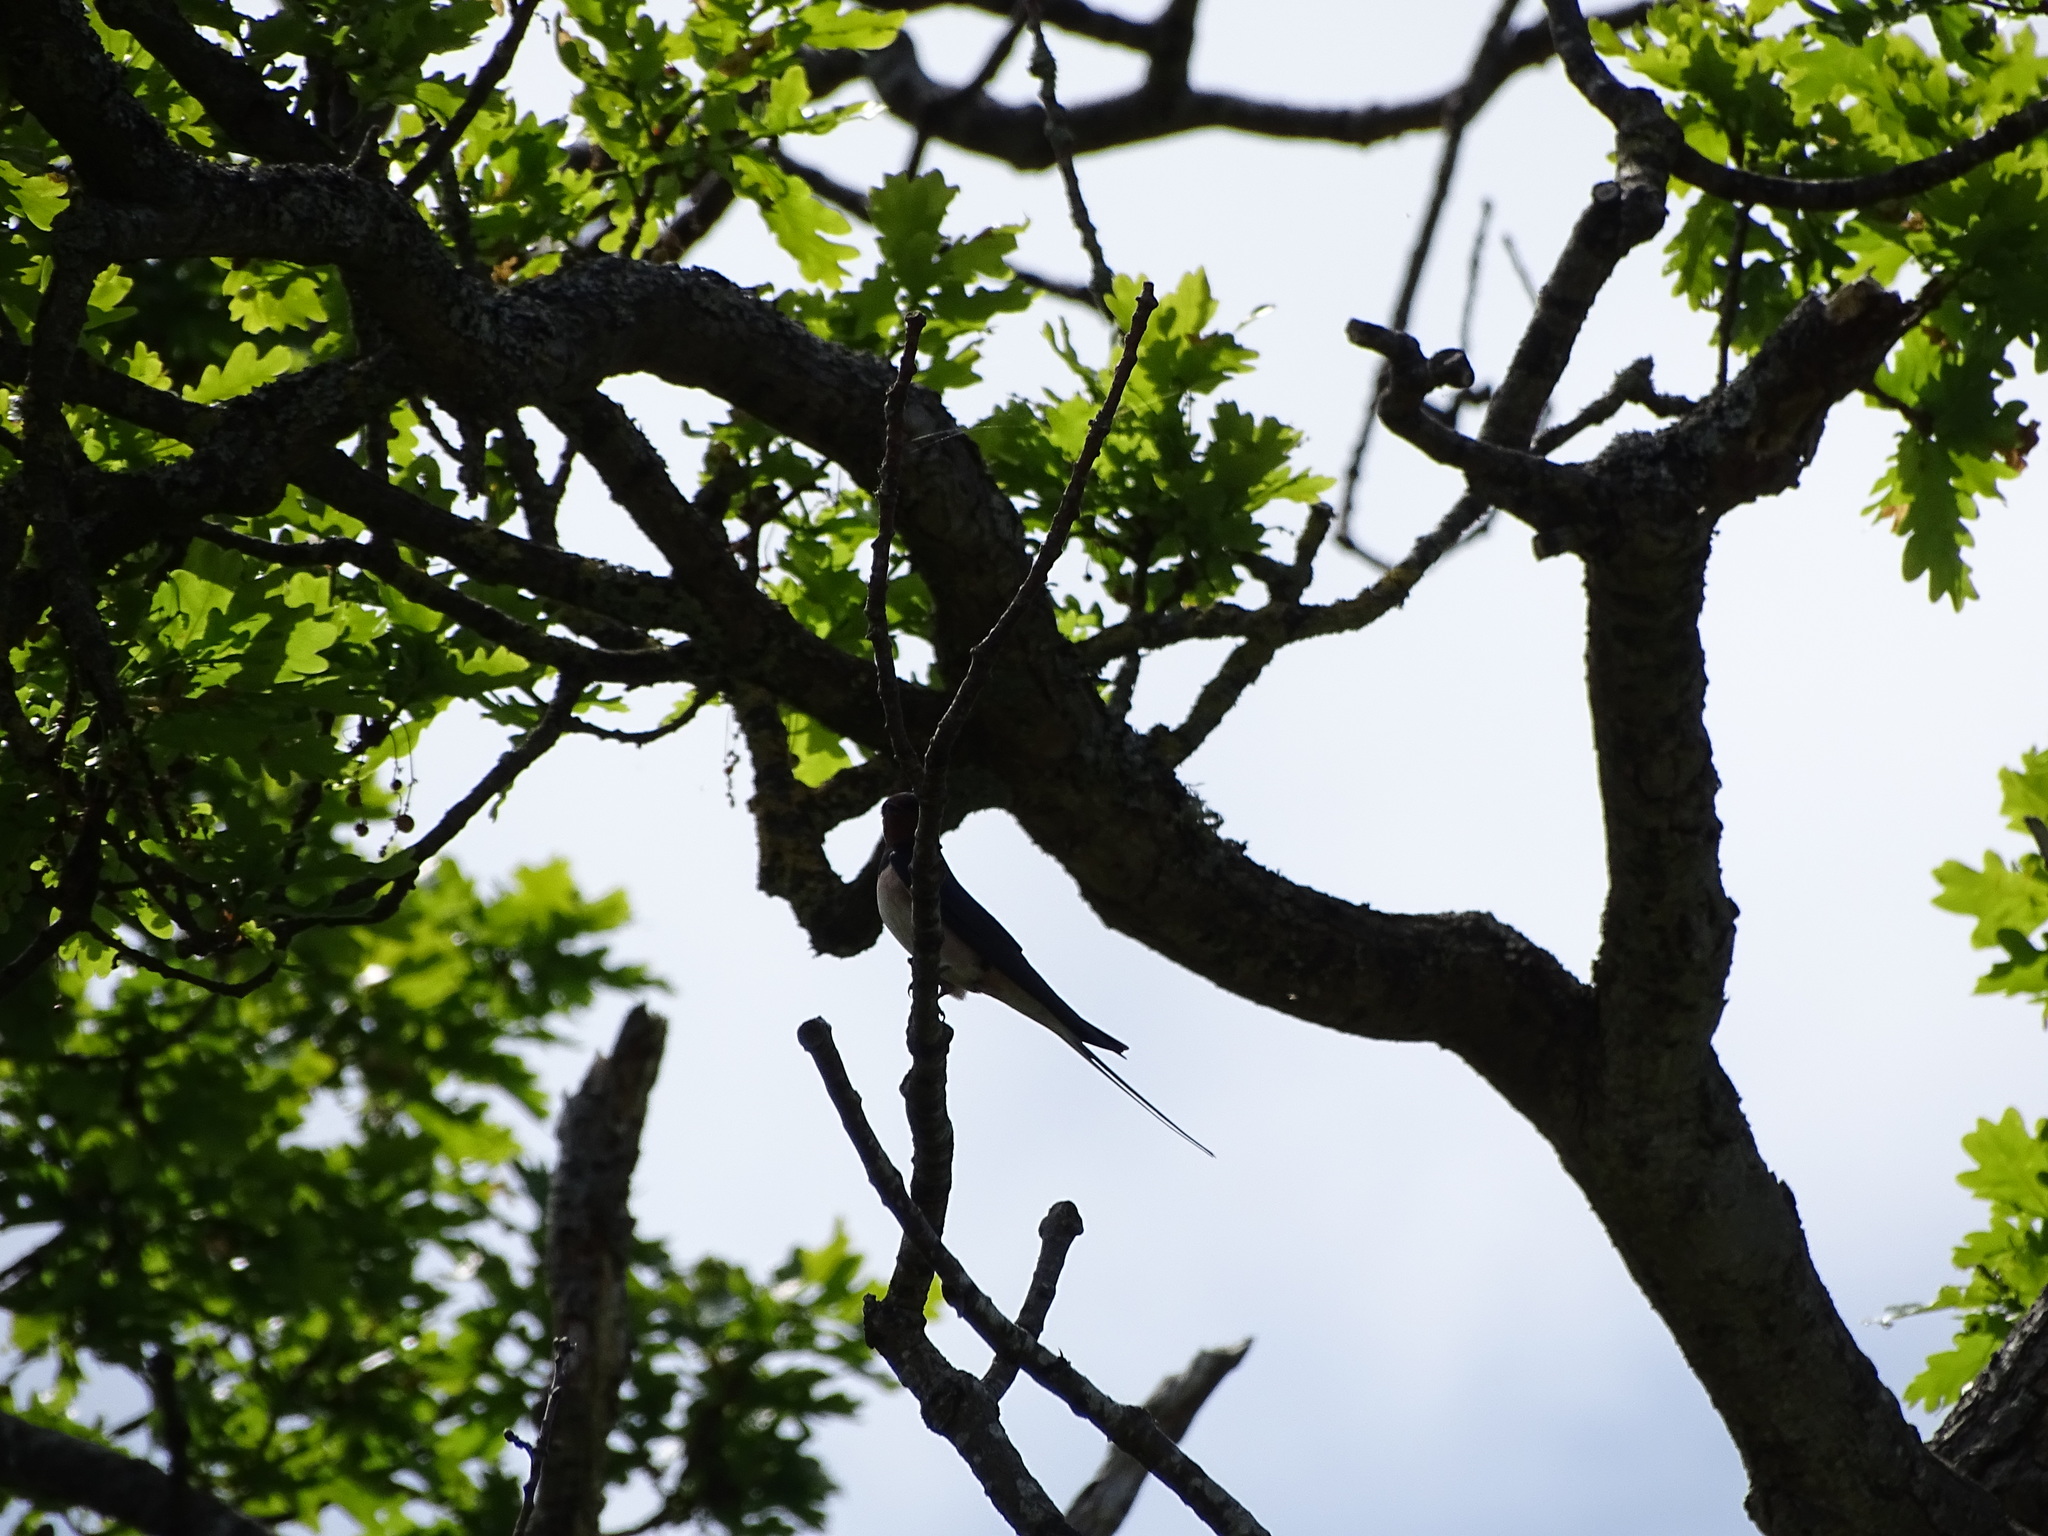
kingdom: Animalia
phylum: Chordata
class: Aves
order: Passeriformes
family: Hirundinidae
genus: Hirundo
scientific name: Hirundo rustica
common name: Barn swallow
